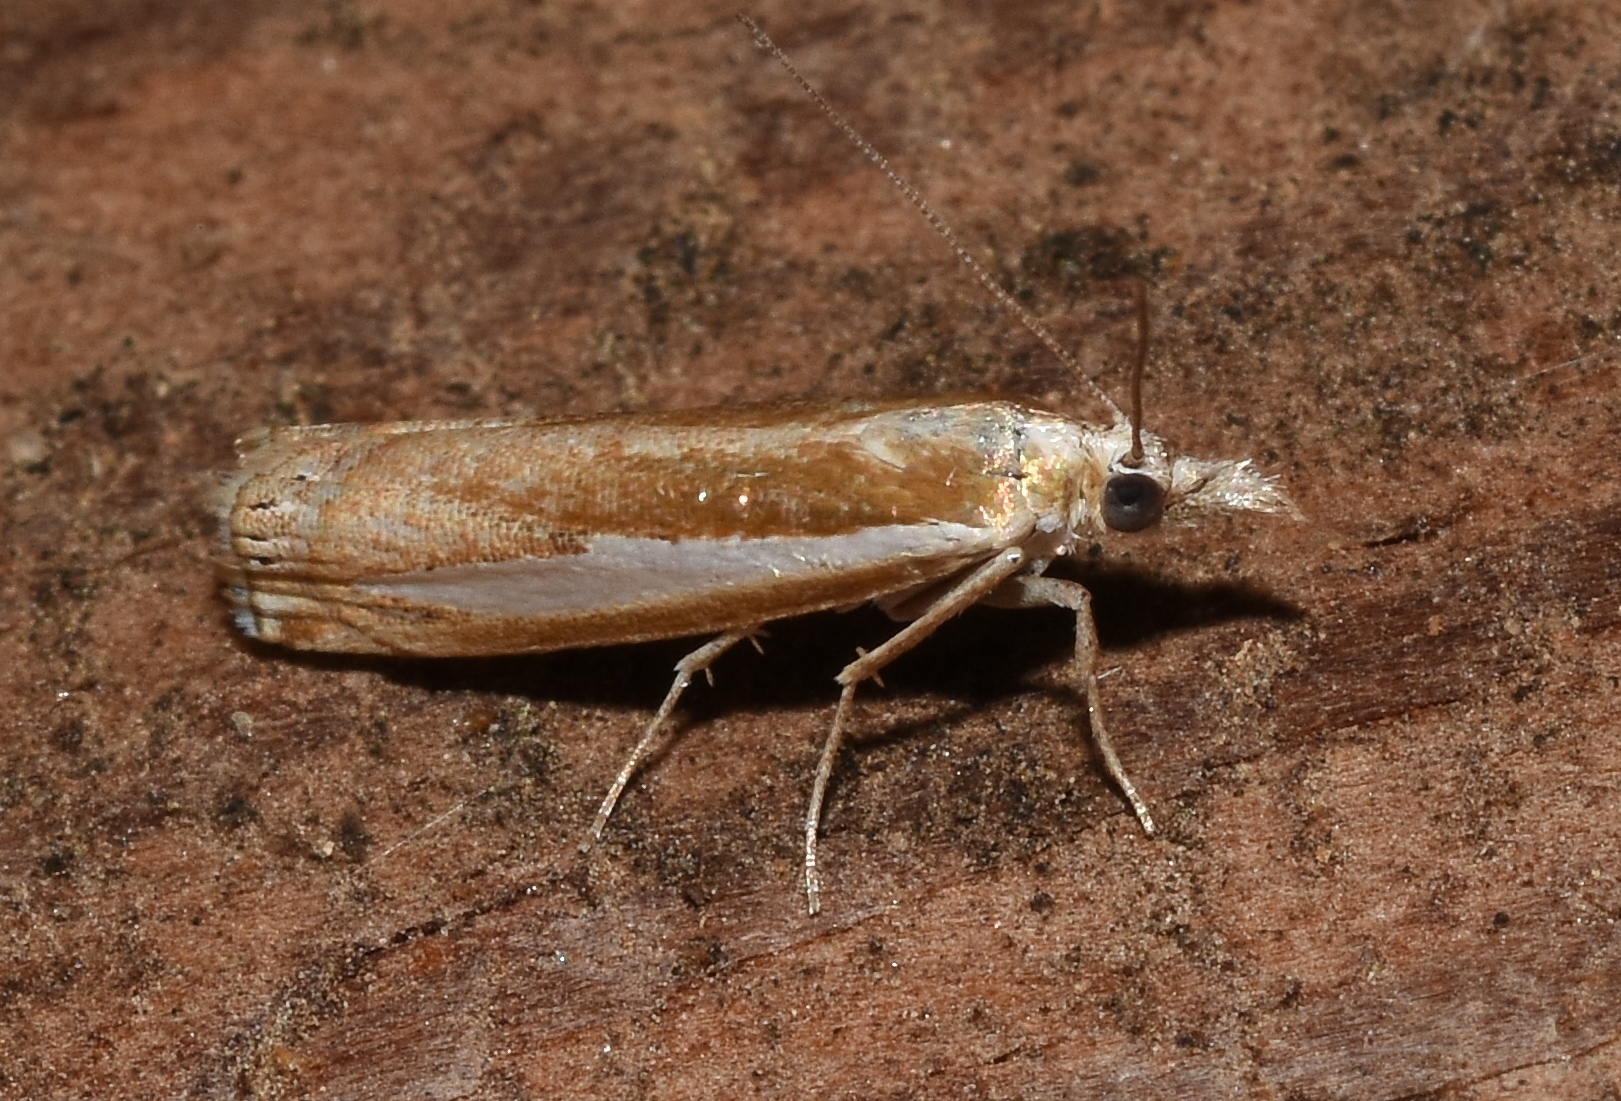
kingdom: Animalia
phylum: Arthropoda
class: Insecta
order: Lepidoptera
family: Crambidae
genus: Crambus
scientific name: Crambus praefectellus
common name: Common grass-veneer
